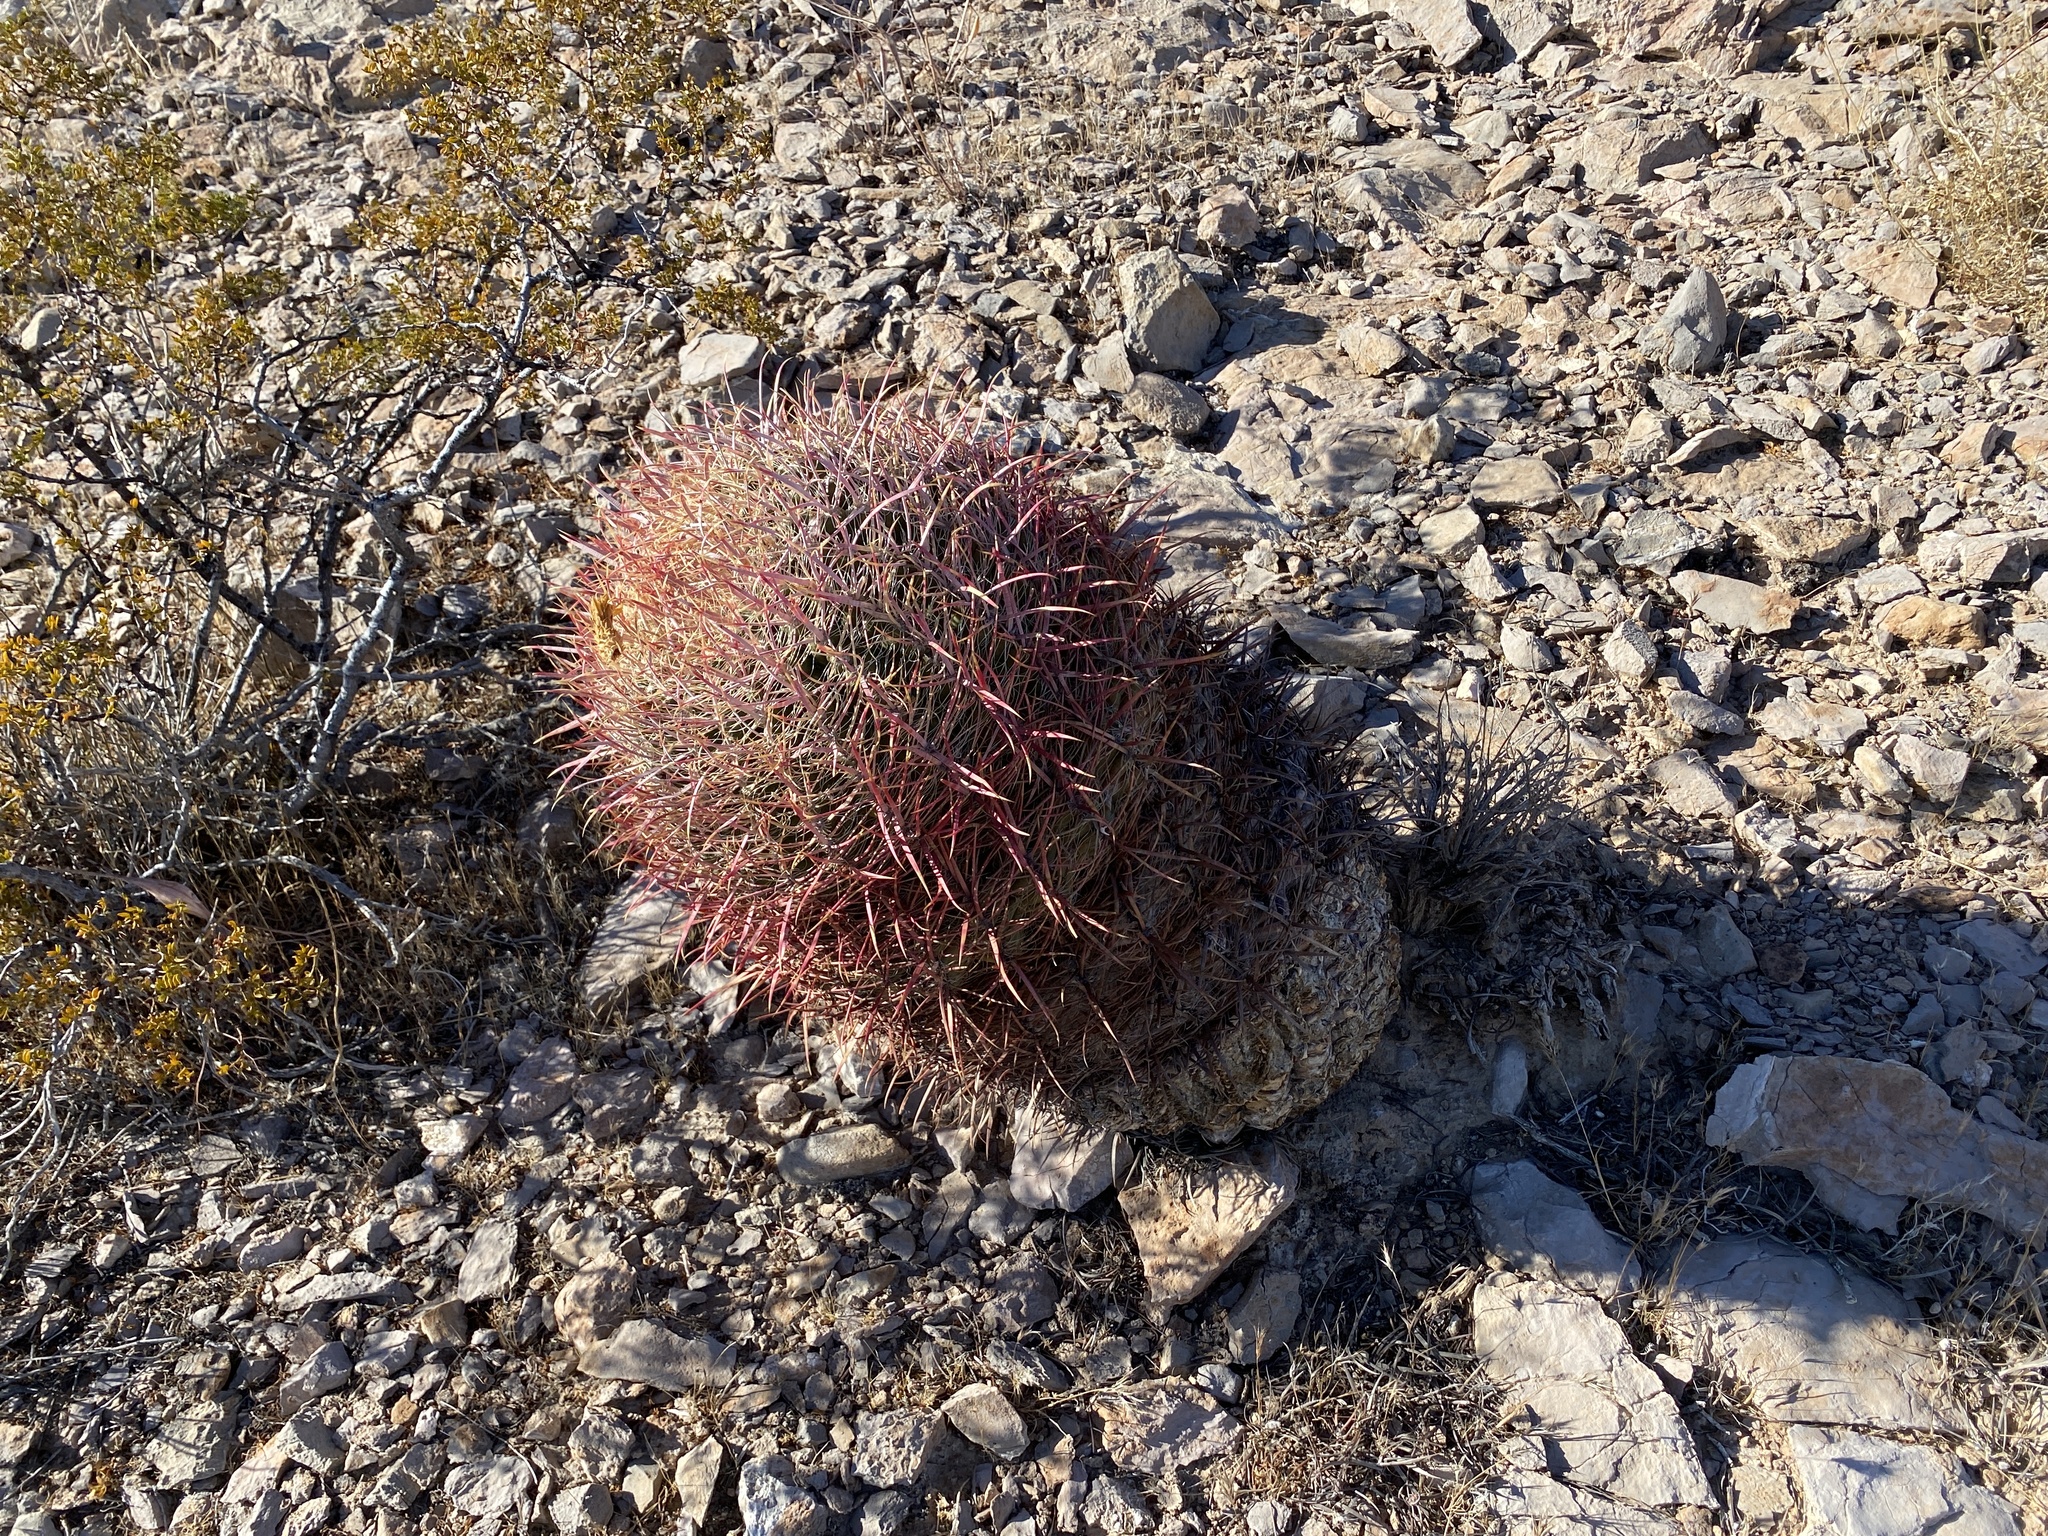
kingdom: Plantae
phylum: Tracheophyta
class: Magnoliopsida
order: Caryophyllales
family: Cactaceae
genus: Ferocactus
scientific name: Ferocactus cylindraceus
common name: California barrel cactus
